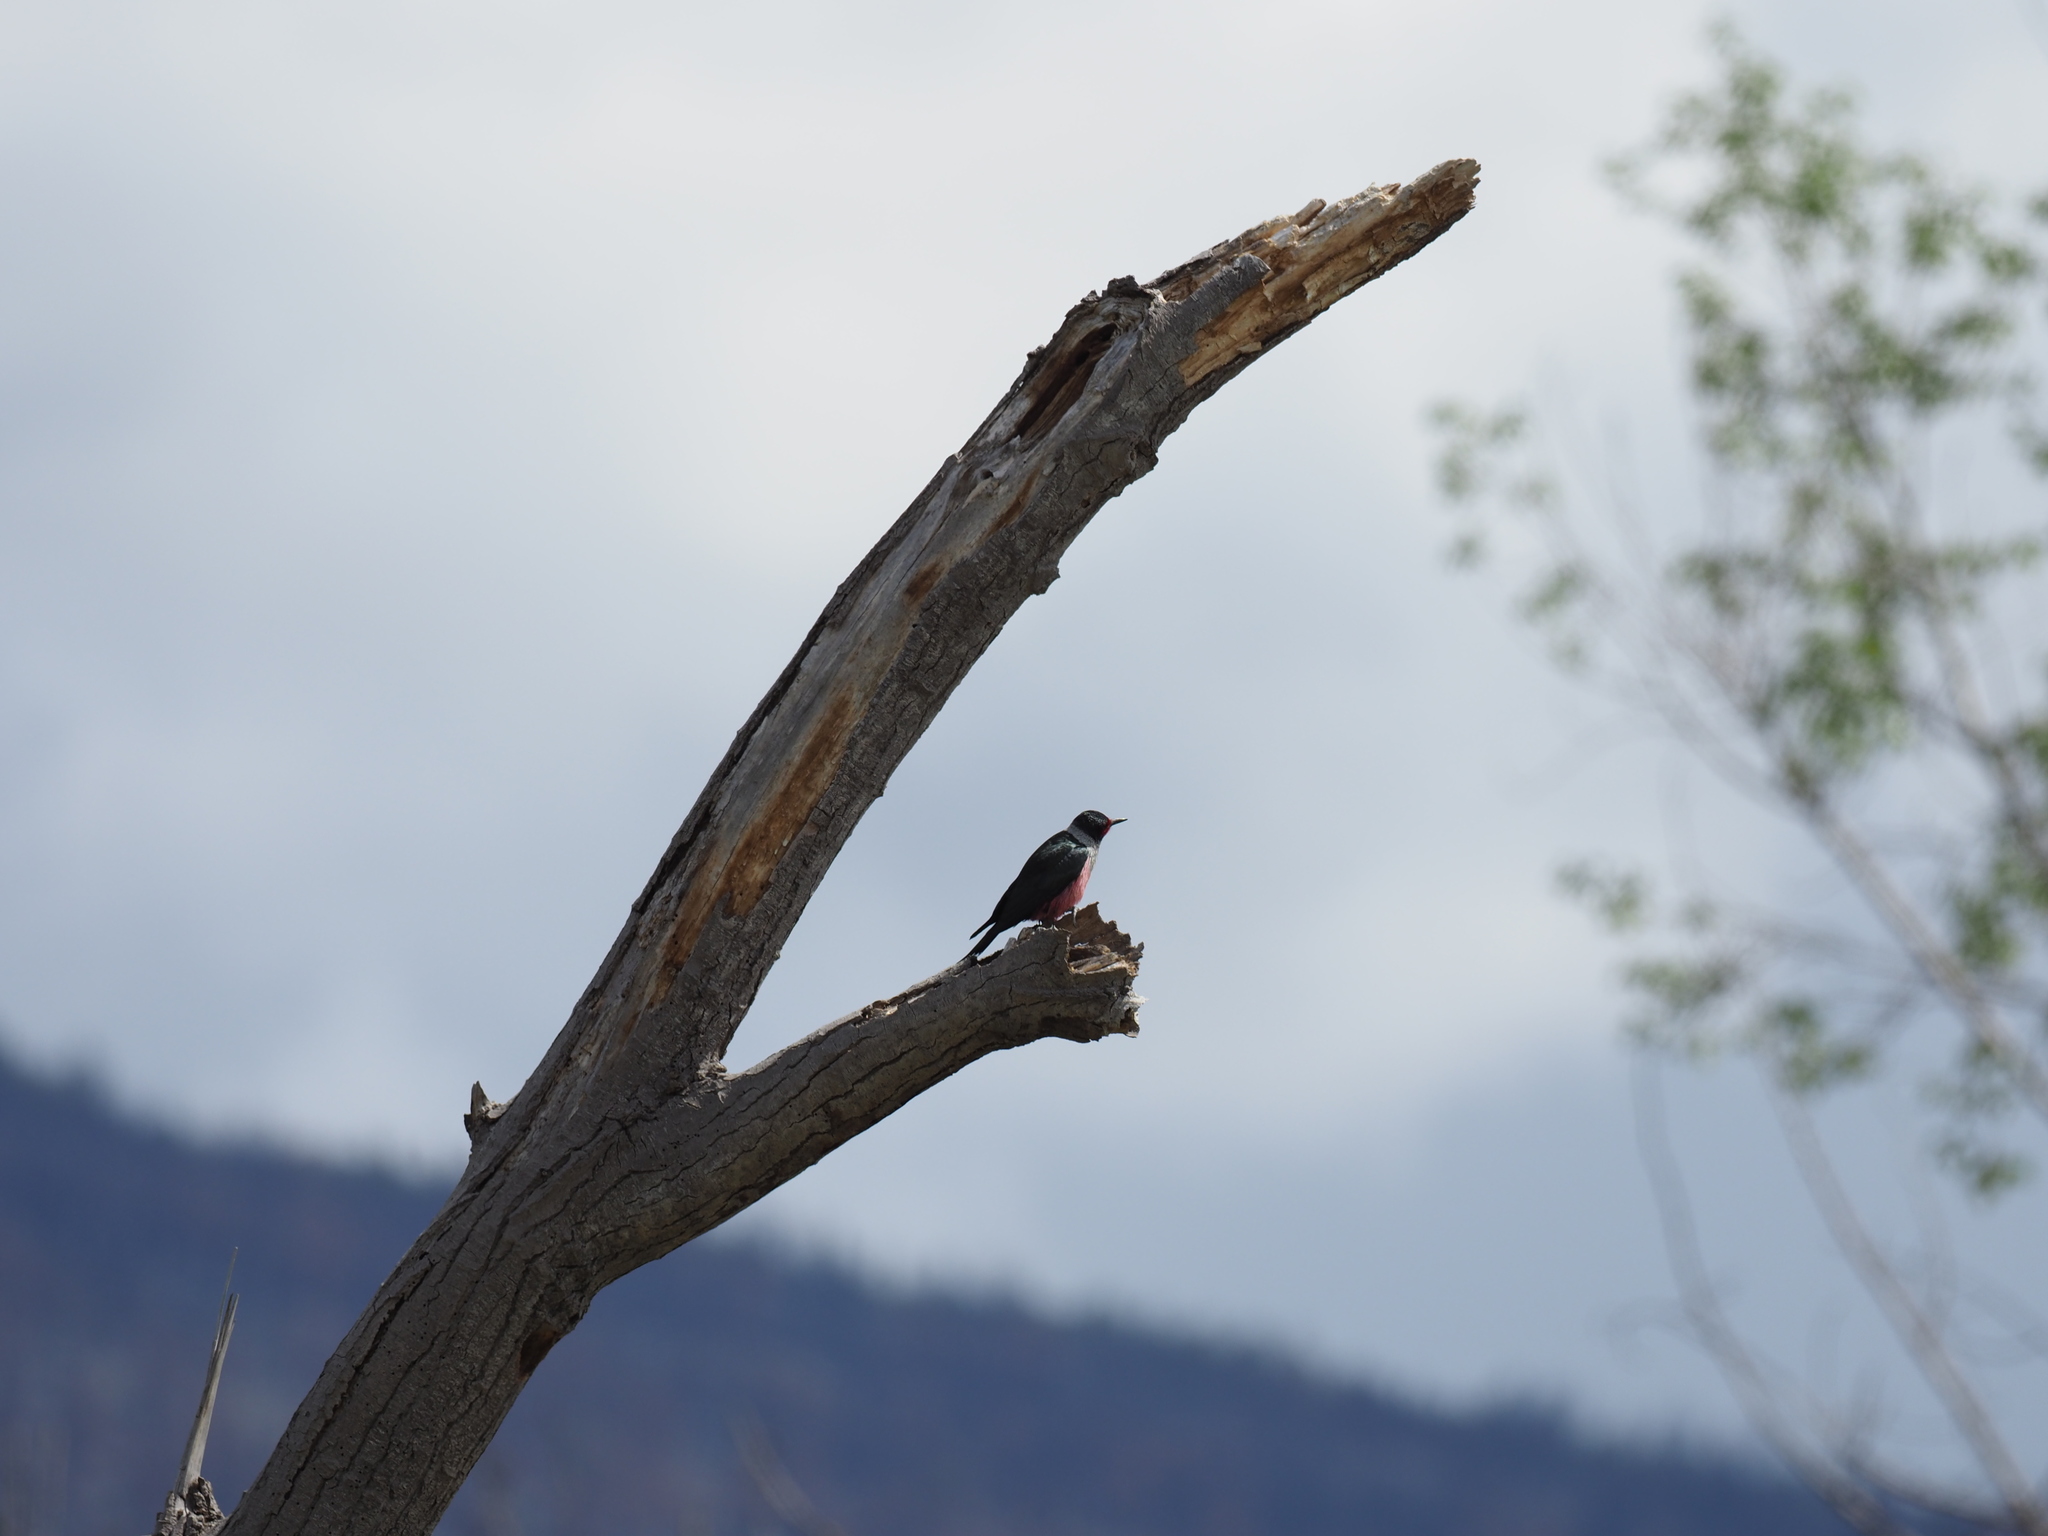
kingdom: Animalia
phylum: Chordata
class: Aves
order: Piciformes
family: Picidae
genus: Melanerpes
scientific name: Melanerpes lewis
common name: Lewis's woodpecker
